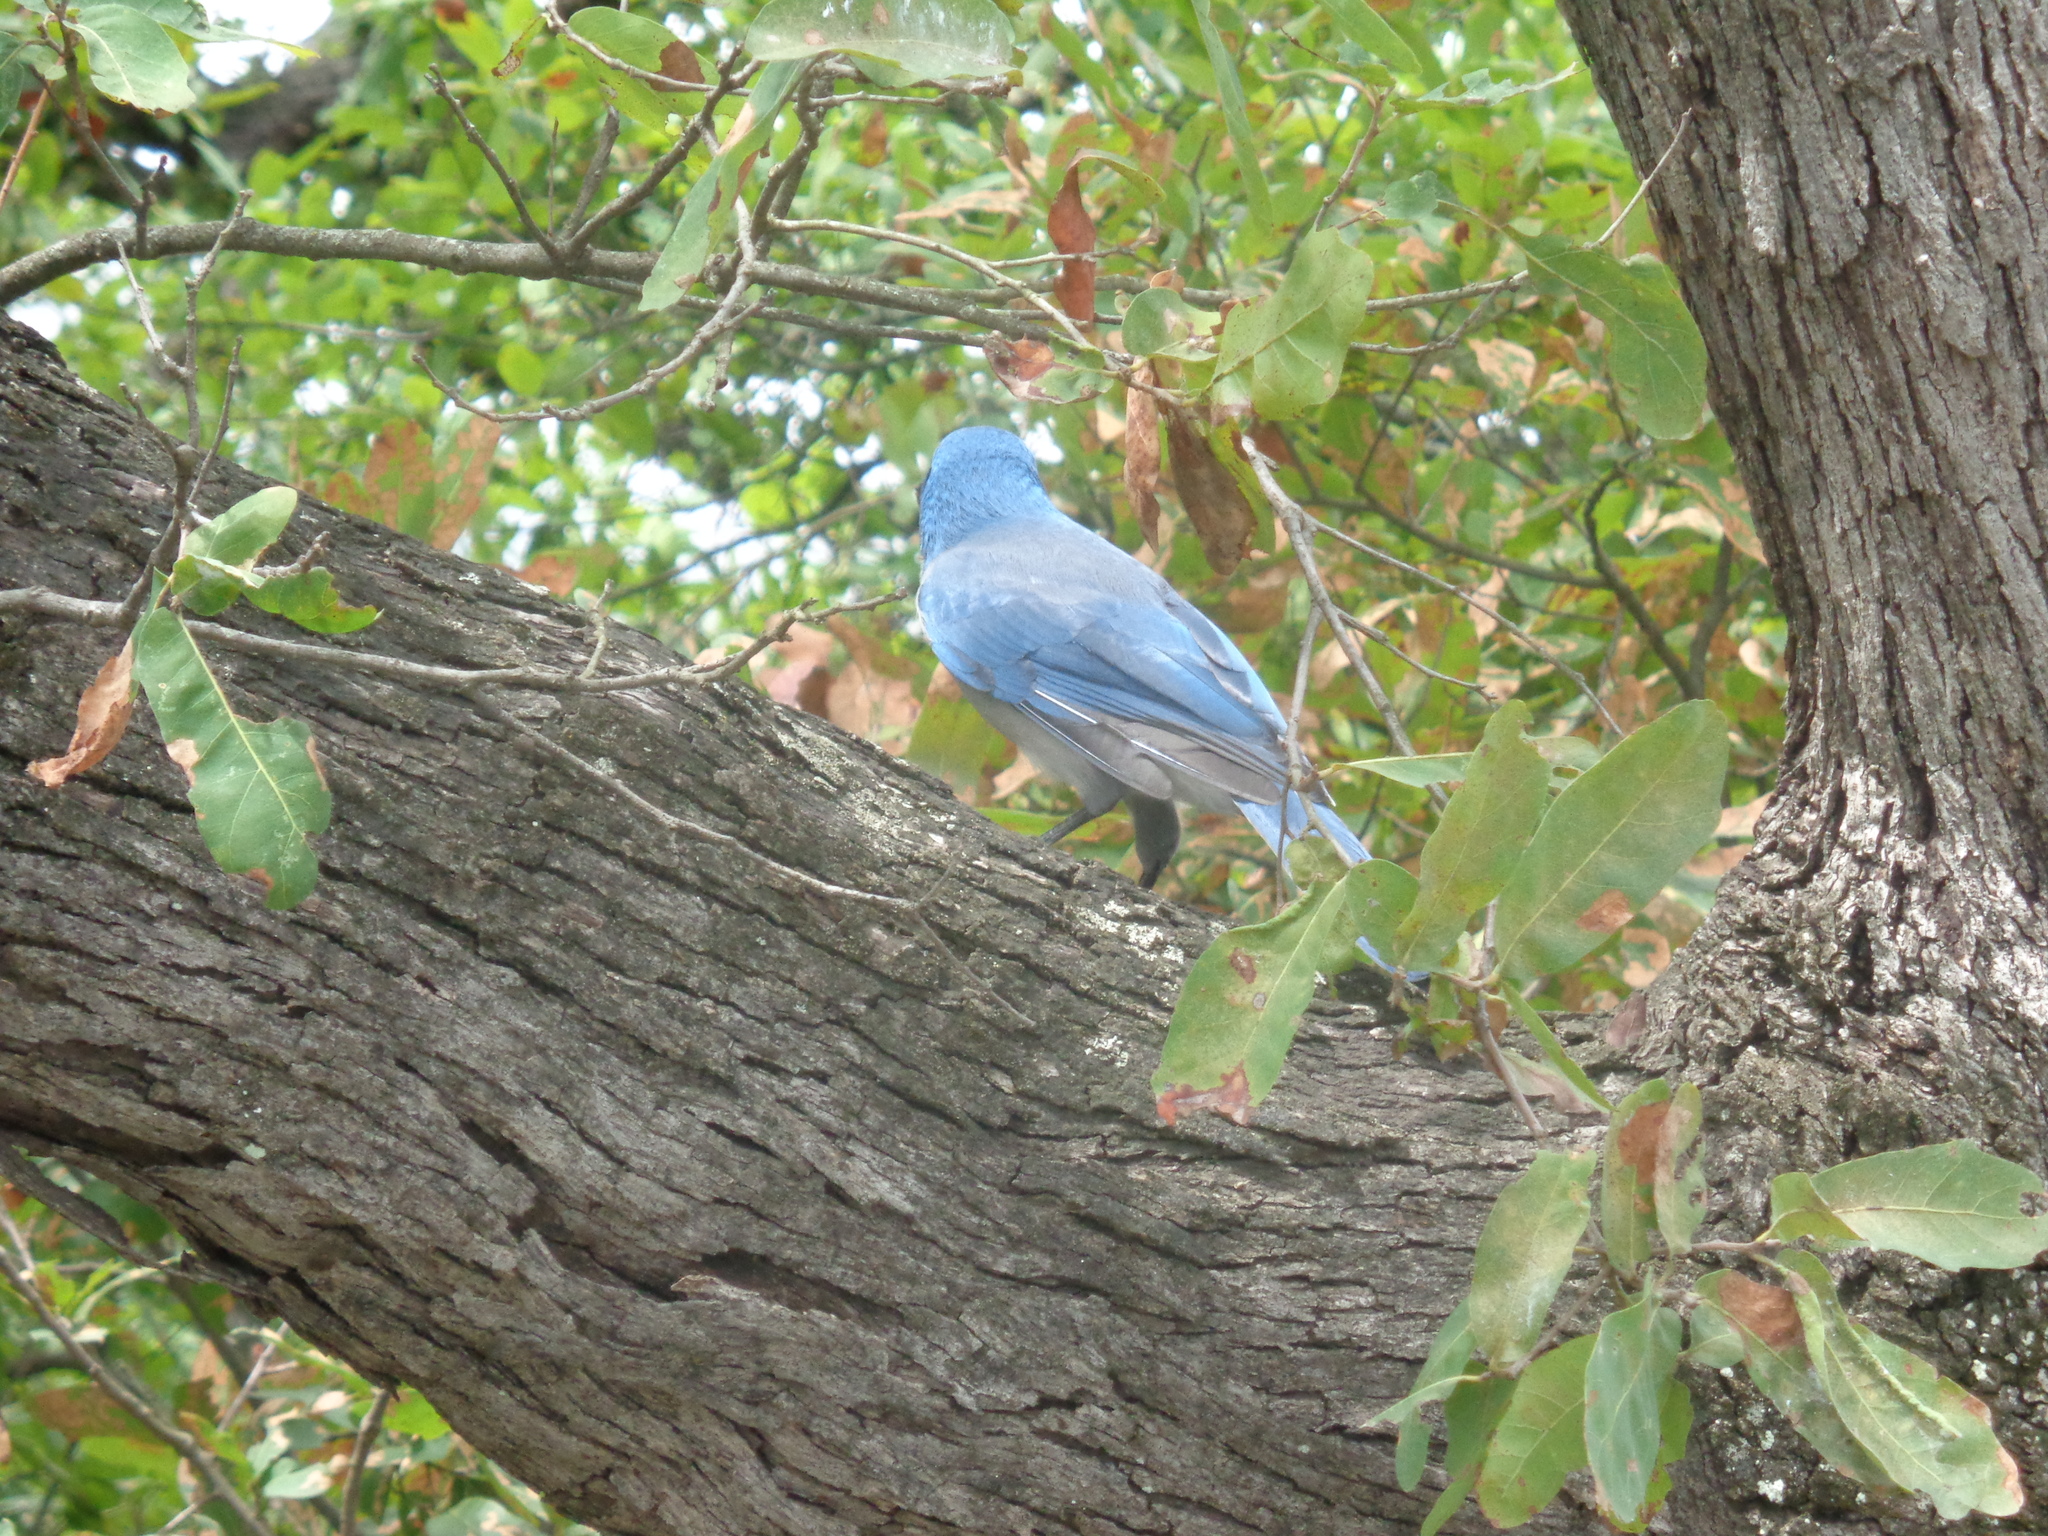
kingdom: Animalia
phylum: Chordata
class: Aves
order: Passeriformes
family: Corvidae
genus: Aphelocoma
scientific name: Aphelocoma wollweberi
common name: Mexican jay
